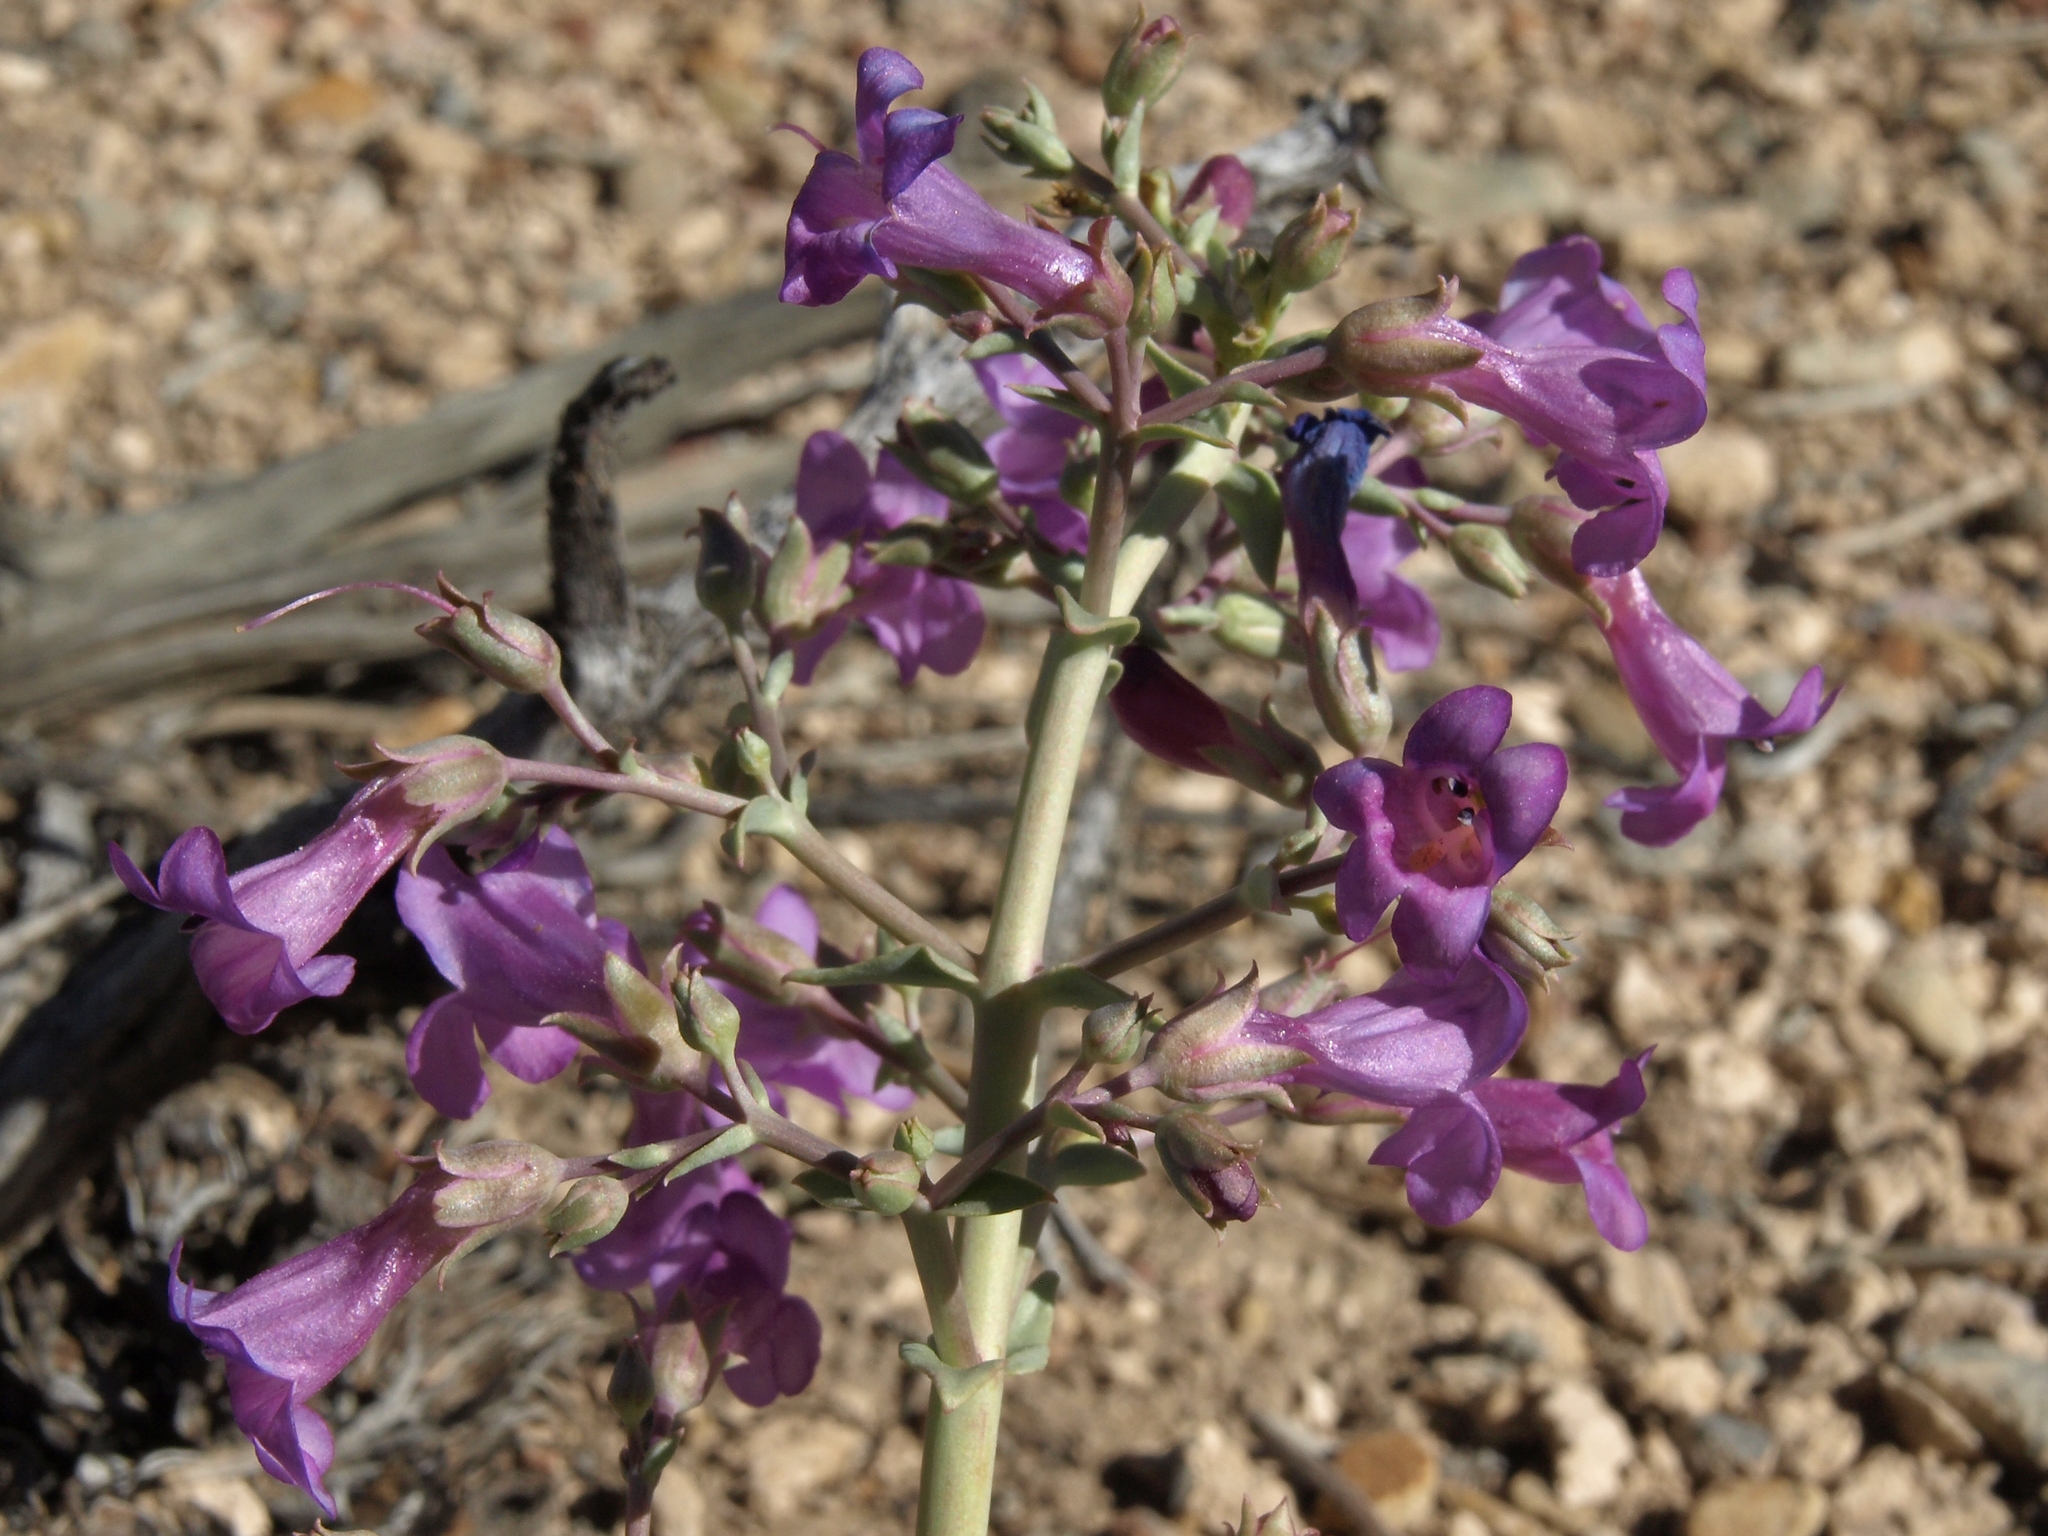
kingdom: Plantae
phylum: Tracheophyta
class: Magnoliopsida
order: Lamiales
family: Plantaginaceae
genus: Penstemon
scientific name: Penstemon patens
